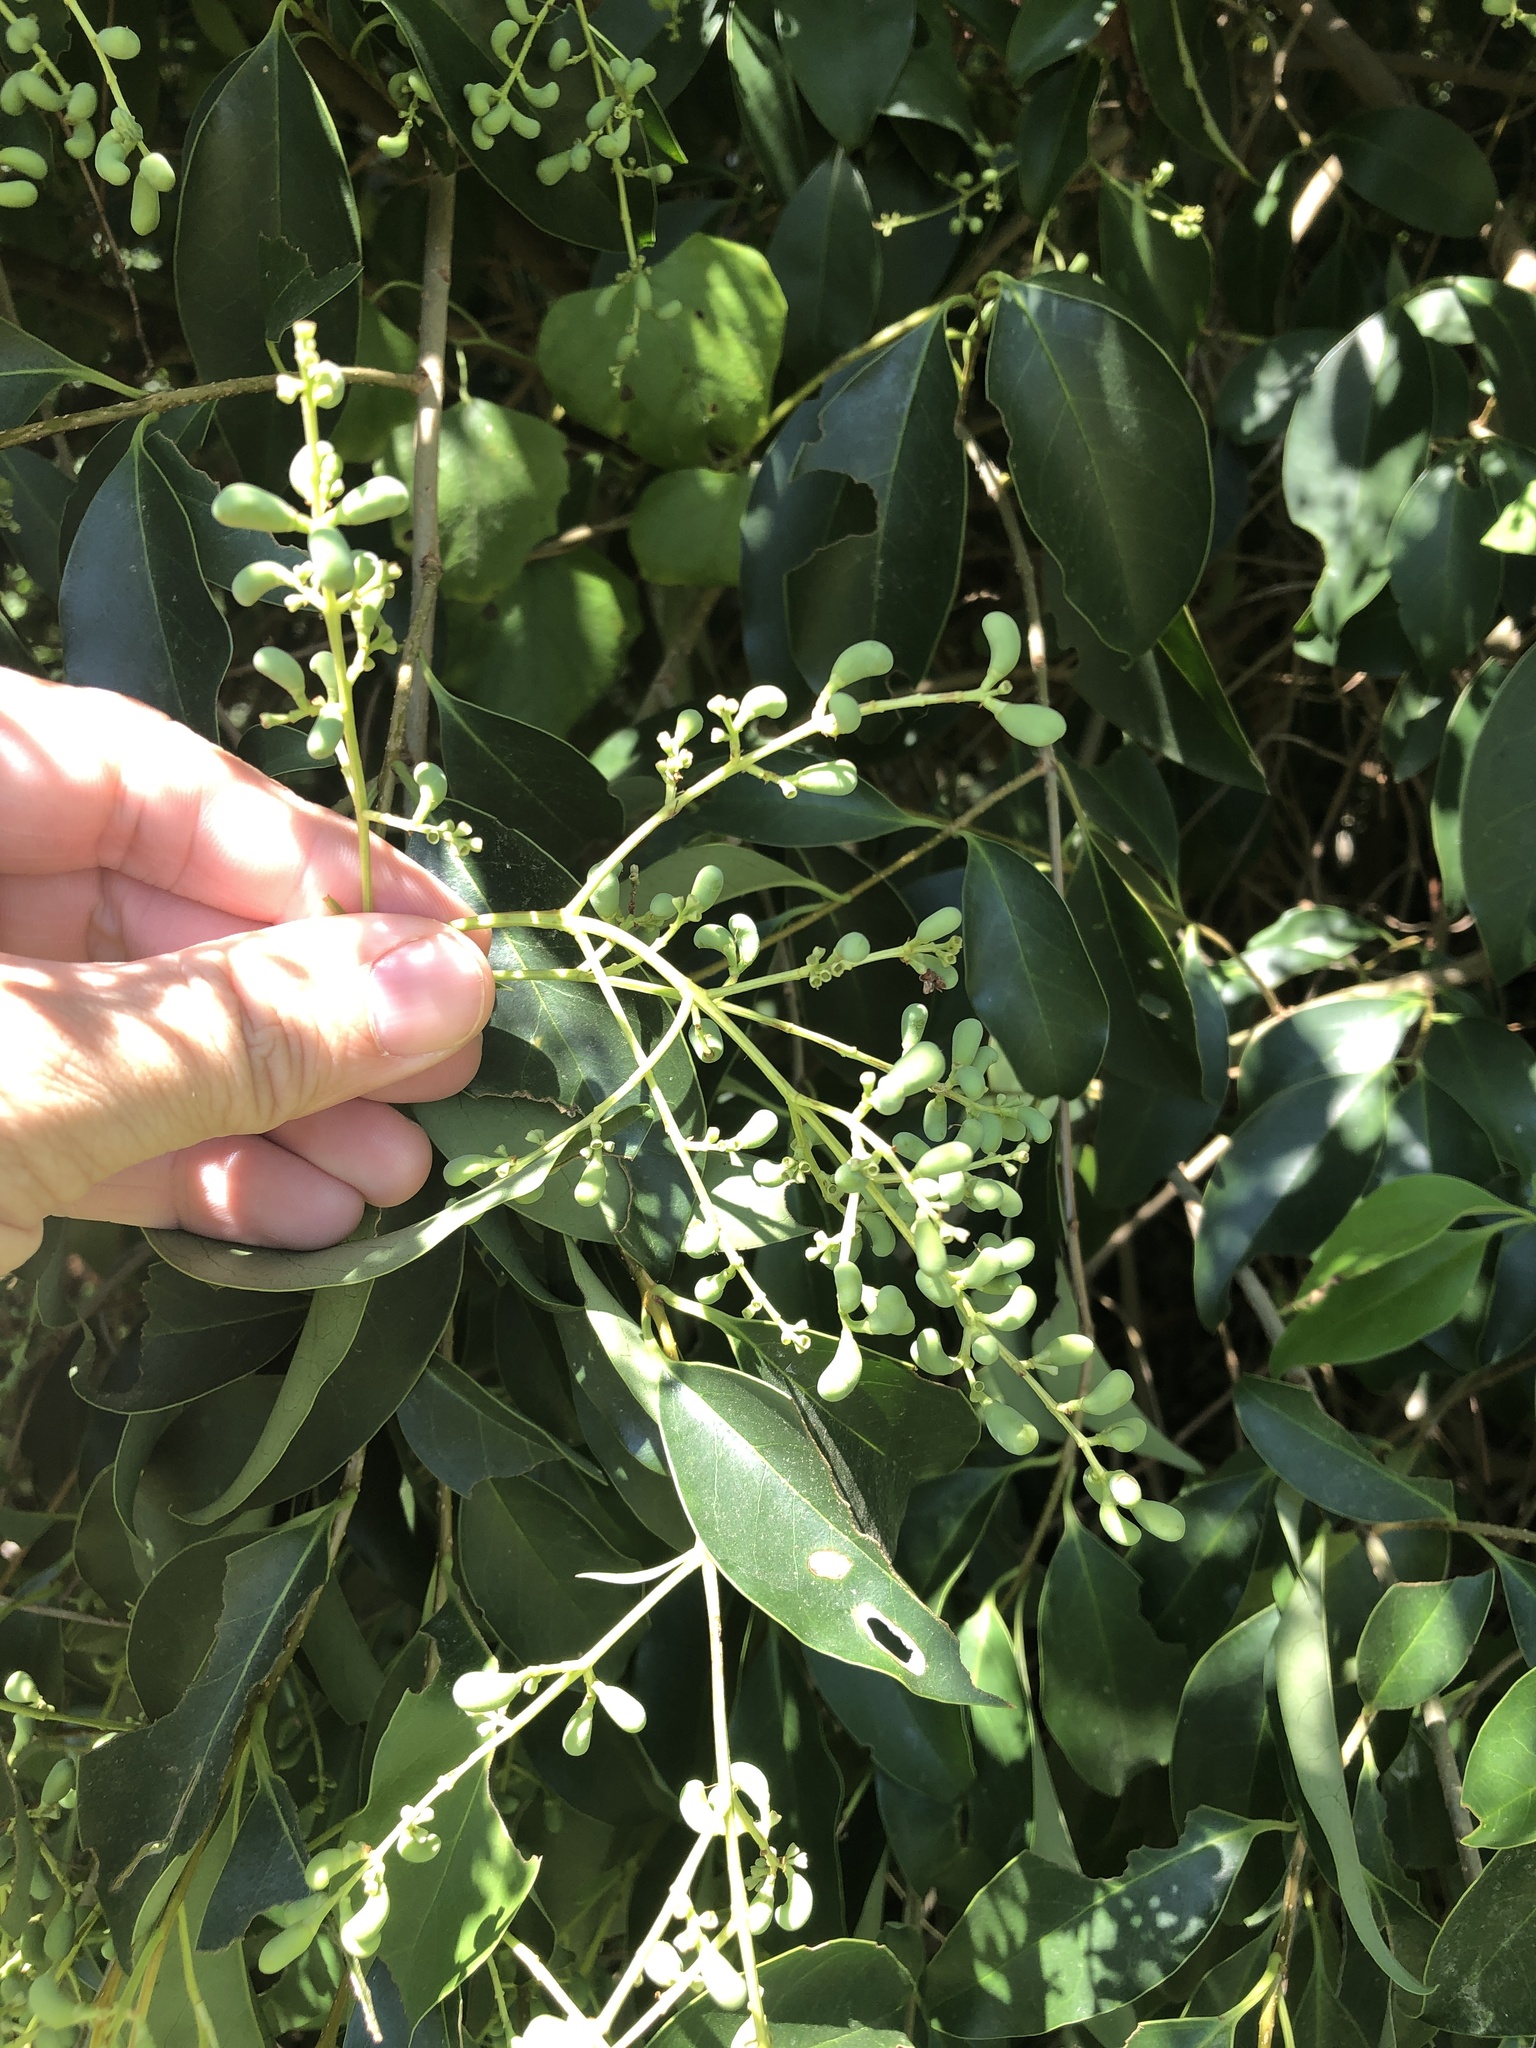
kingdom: Plantae
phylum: Tracheophyta
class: Magnoliopsida
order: Lamiales
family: Oleaceae
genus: Ligustrum
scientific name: Ligustrum lucidum
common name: Glossy privet
